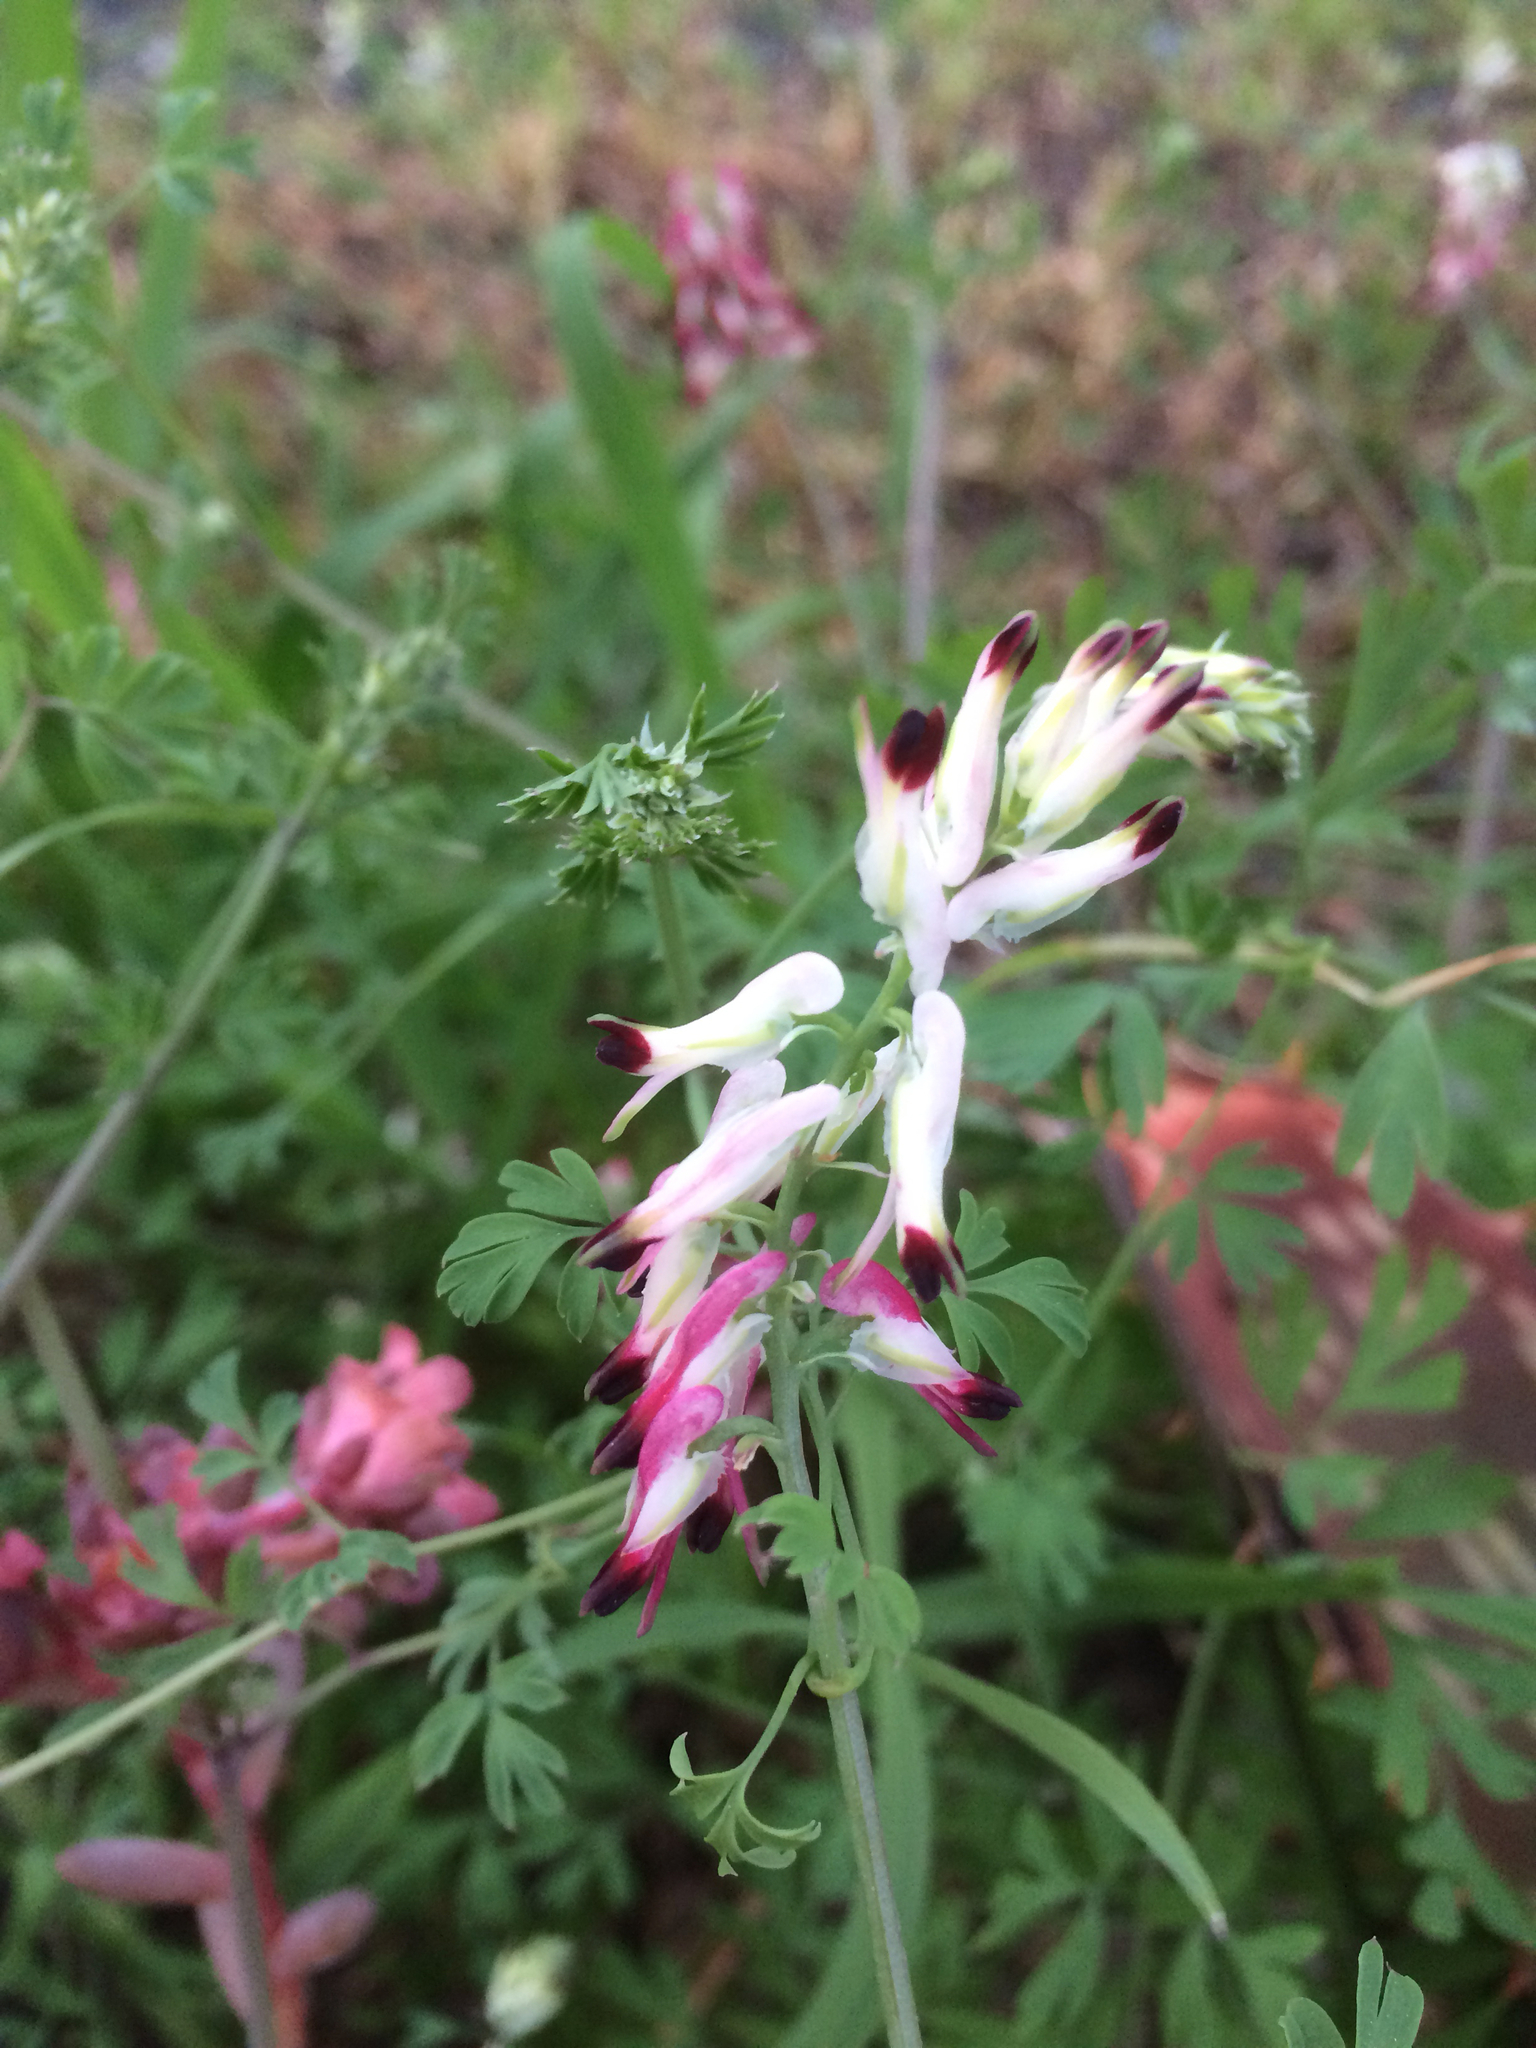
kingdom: Plantae
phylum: Tracheophyta
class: Magnoliopsida
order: Ranunculales
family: Papaveraceae
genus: Fumaria
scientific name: Fumaria capreolata
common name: White ramping-fumitory
